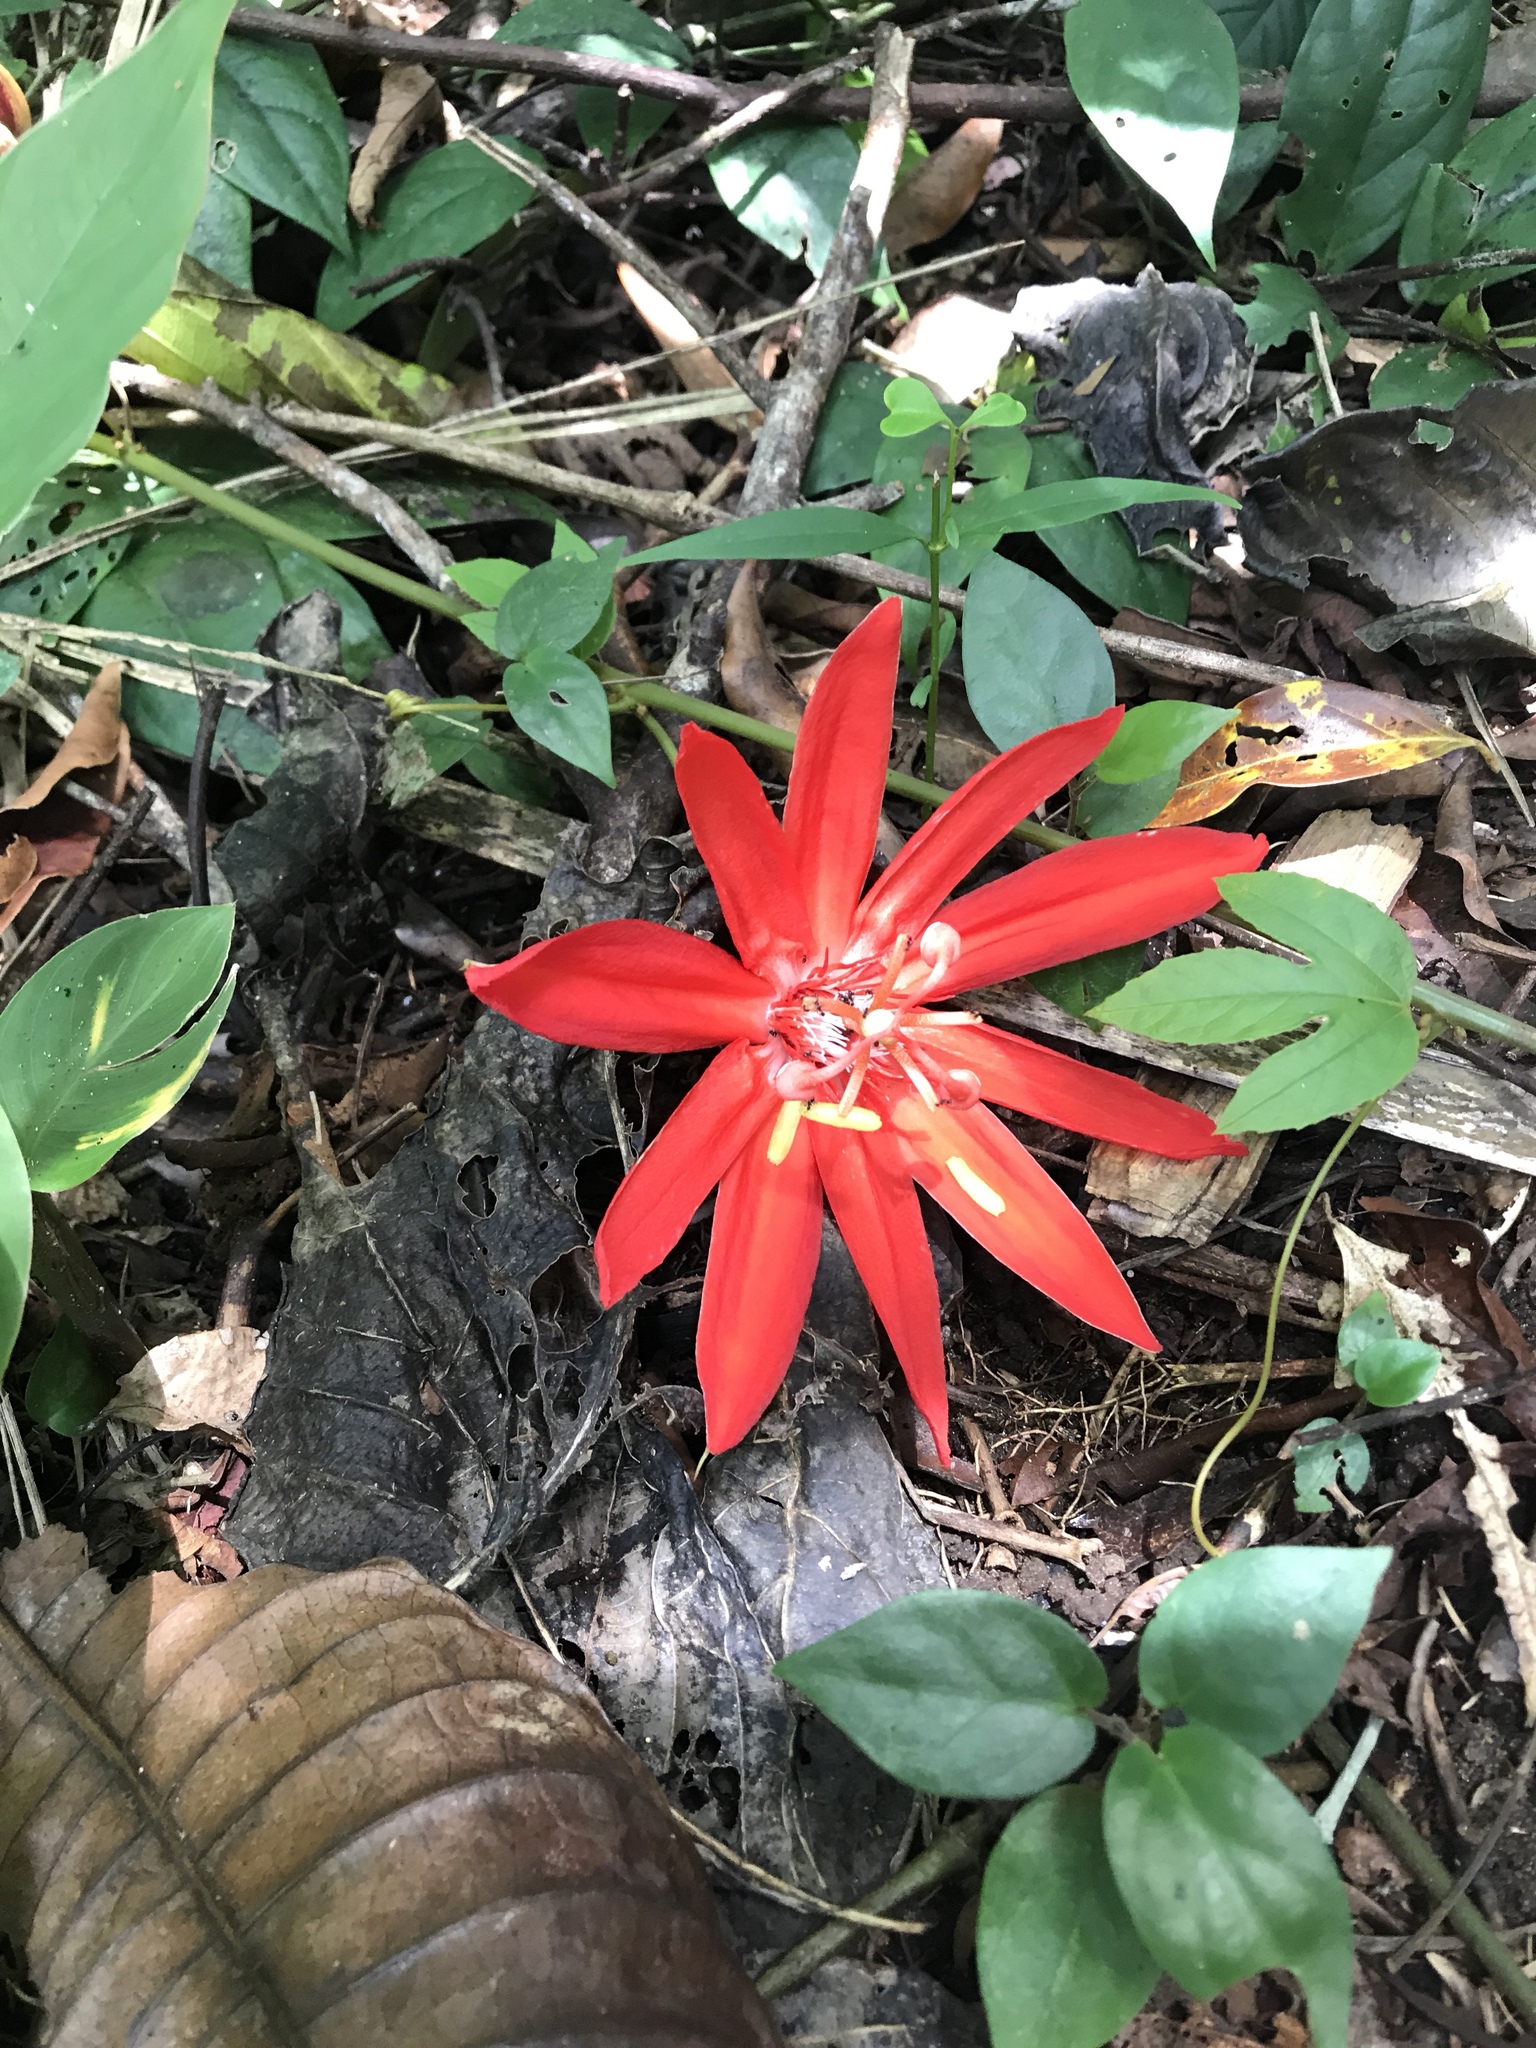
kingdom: Plantae
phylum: Tracheophyta
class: Magnoliopsida
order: Malpighiales
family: Passifloraceae
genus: Passiflora
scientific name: Passiflora vitifolia
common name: Perfumed passionflower
